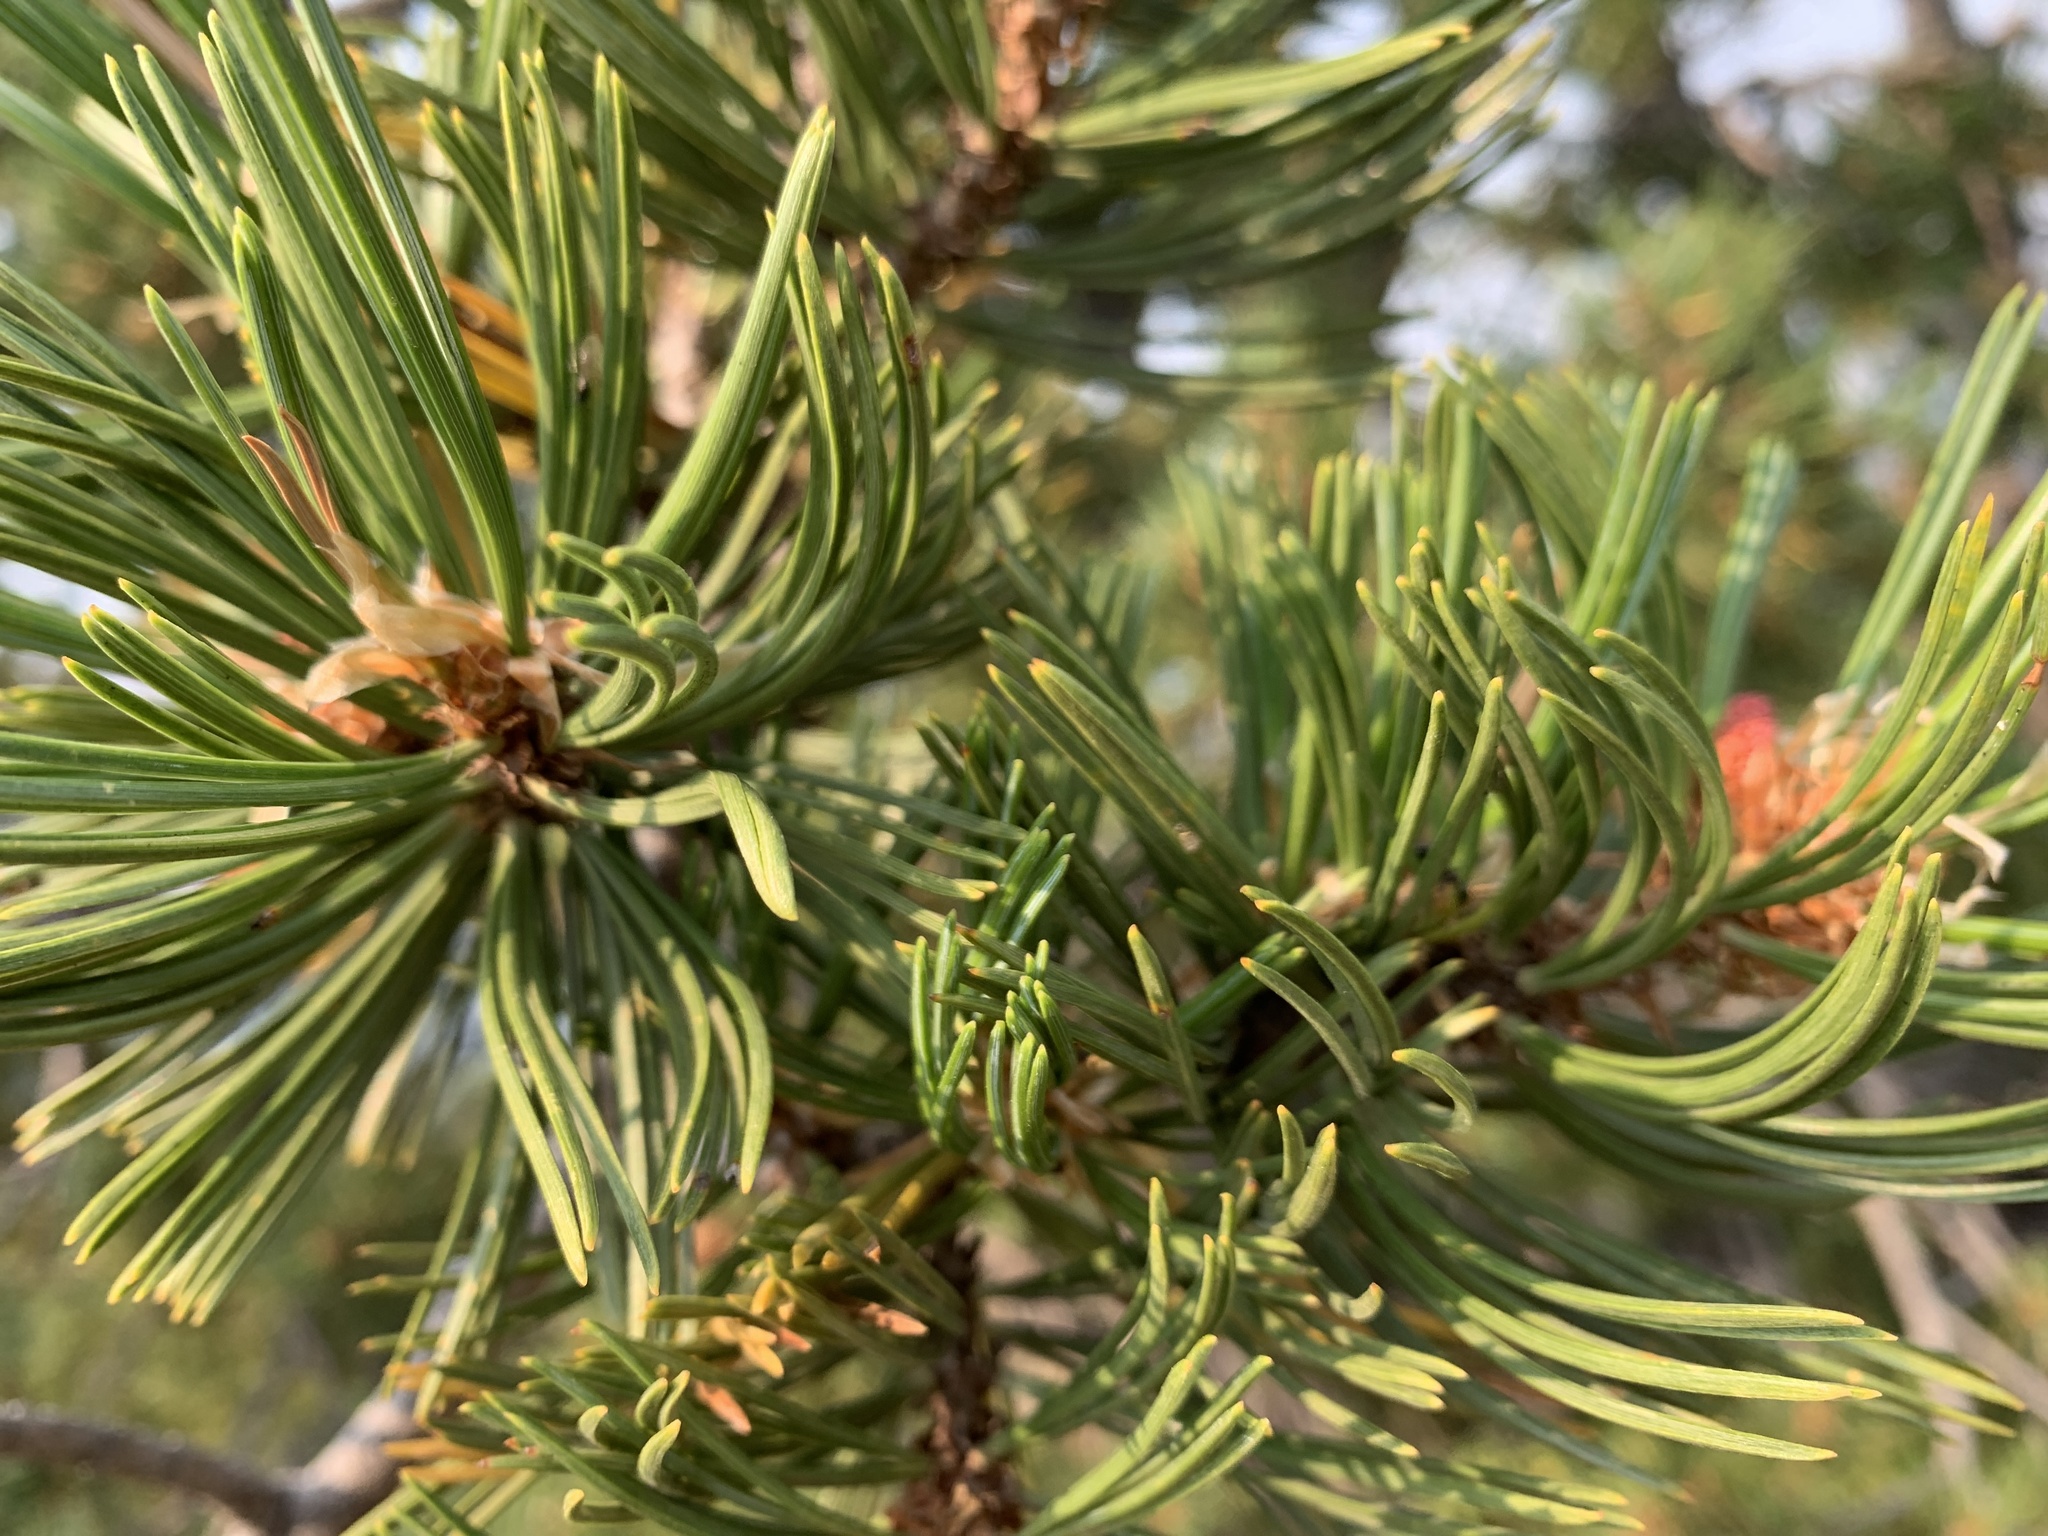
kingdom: Plantae
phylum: Tracheophyta
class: Pinopsida
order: Pinales
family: Pinaceae
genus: Pinus
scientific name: Pinus albicaulis
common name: Whitebark pine
